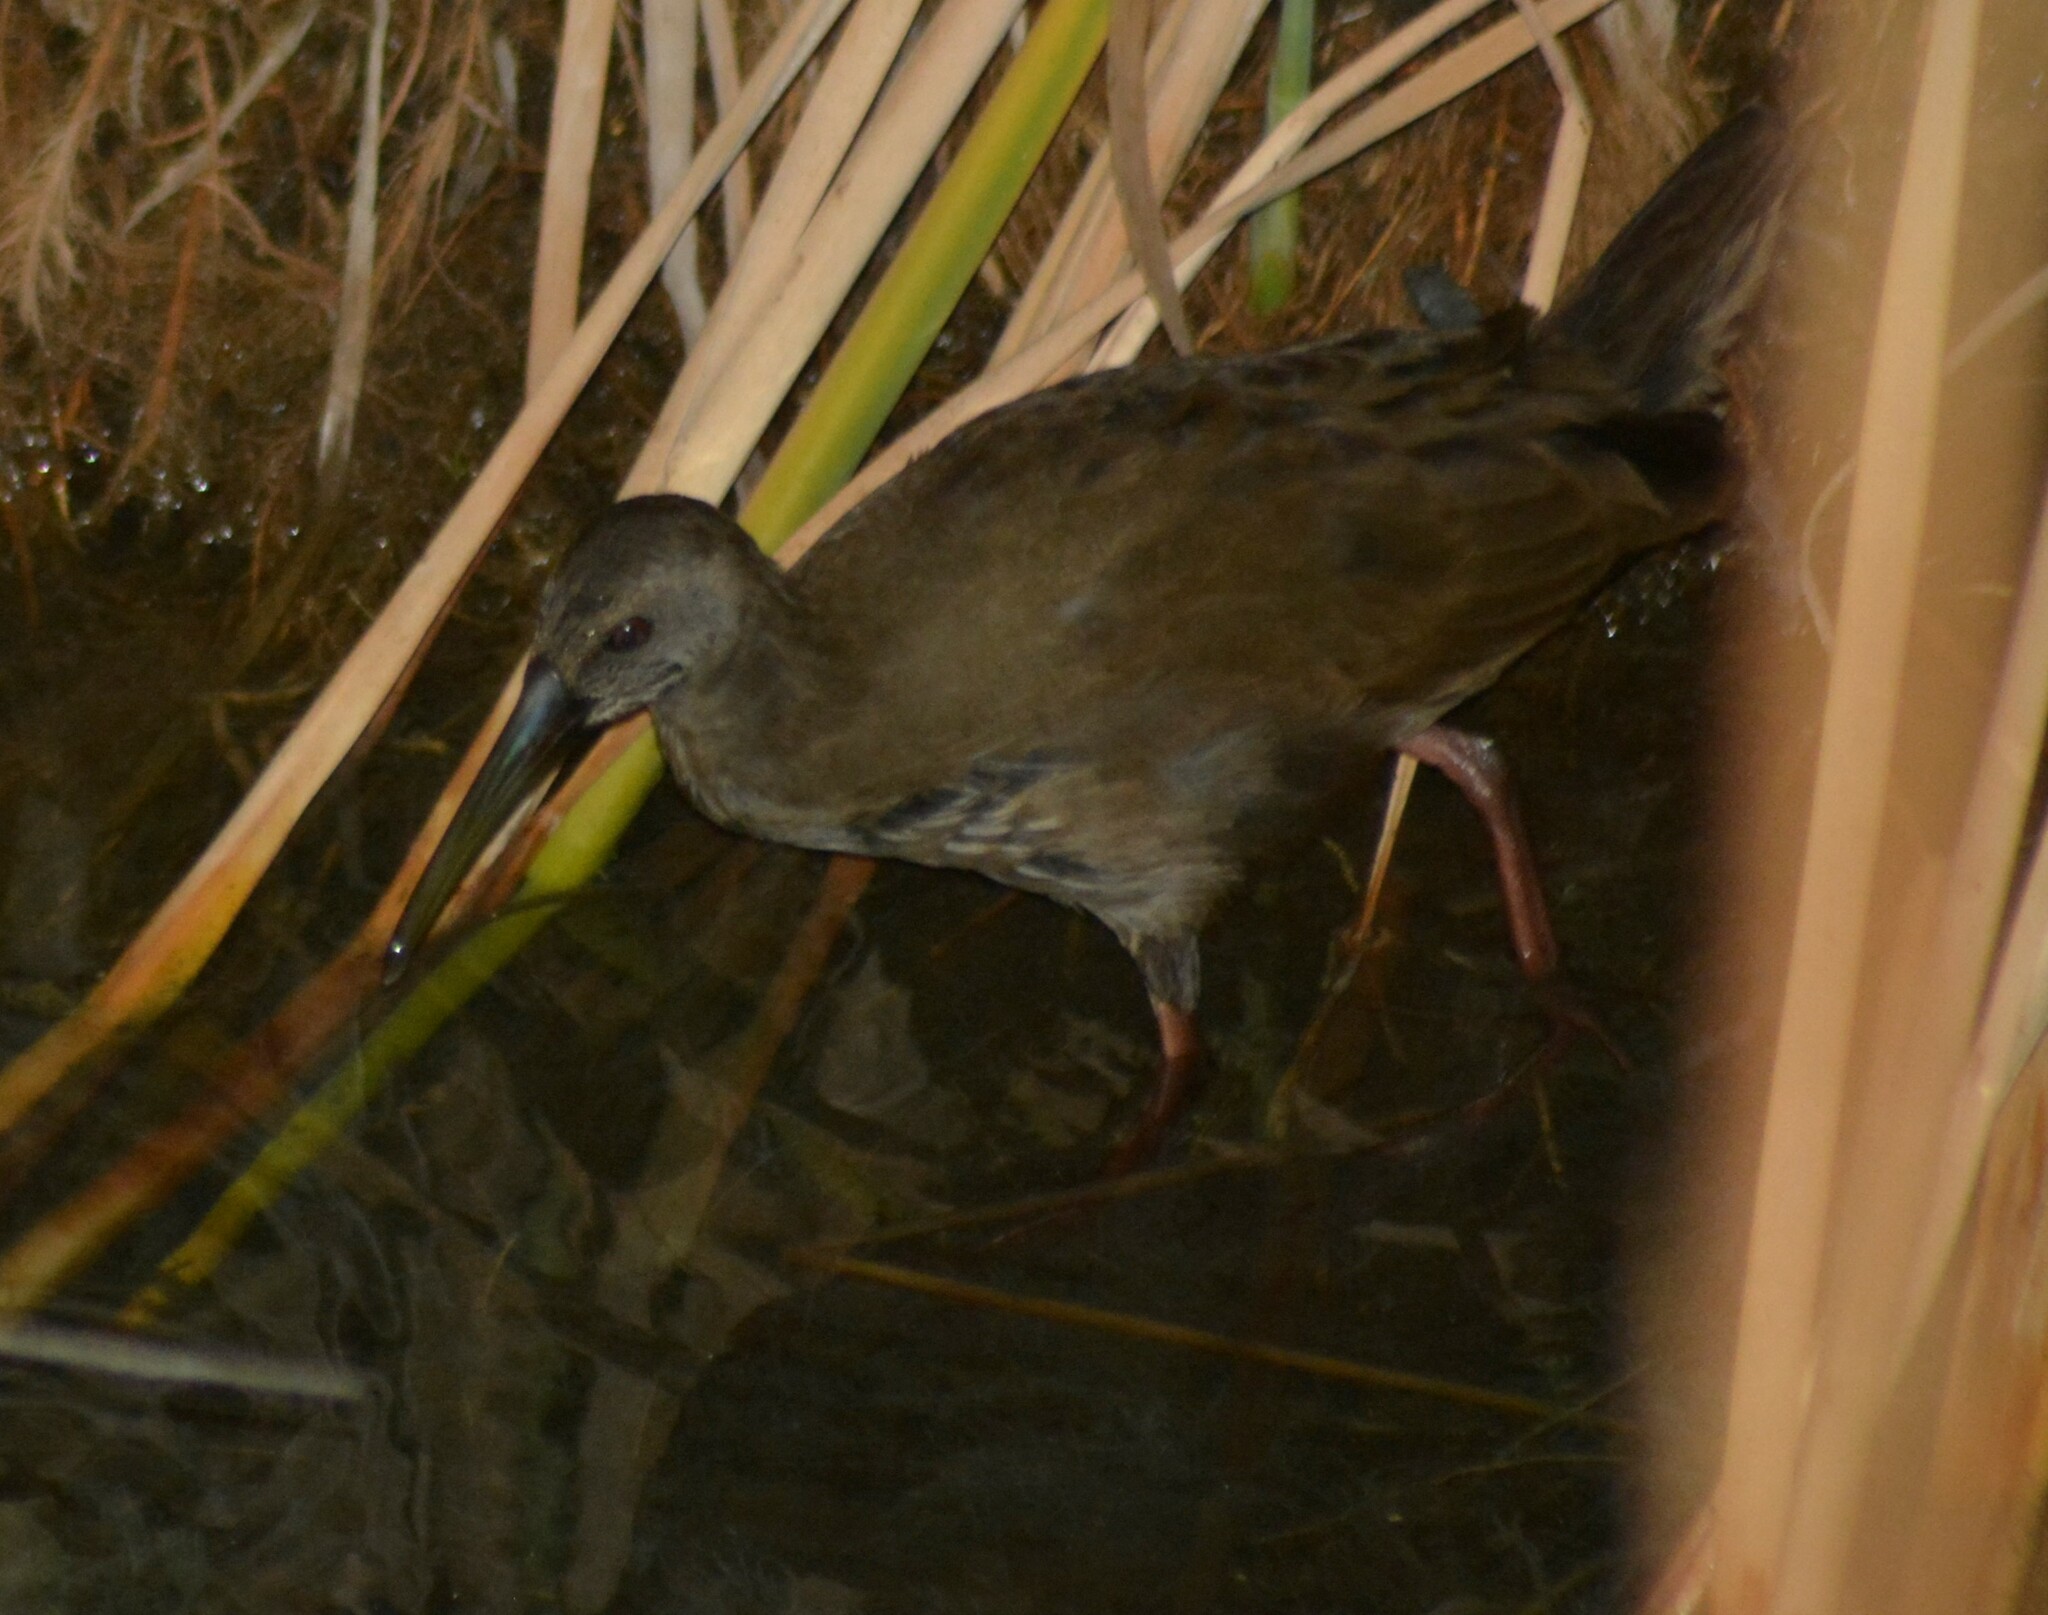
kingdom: Animalia
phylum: Chordata
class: Aves
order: Gruiformes
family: Rallidae
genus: Pardirallus
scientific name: Pardirallus sanguinolentus
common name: Plumbeous rail
